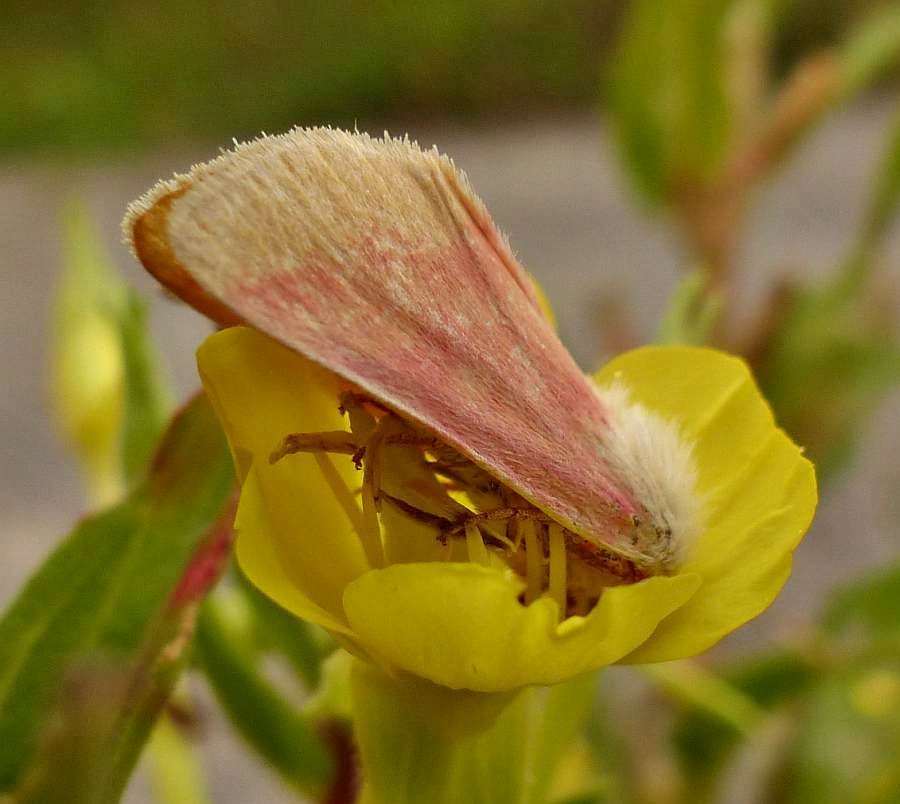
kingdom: Animalia
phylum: Arthropoda
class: Insecta
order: Lepidoptera
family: Noctuidae
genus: Schinia
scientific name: Schinia florida
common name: Primrose moth
